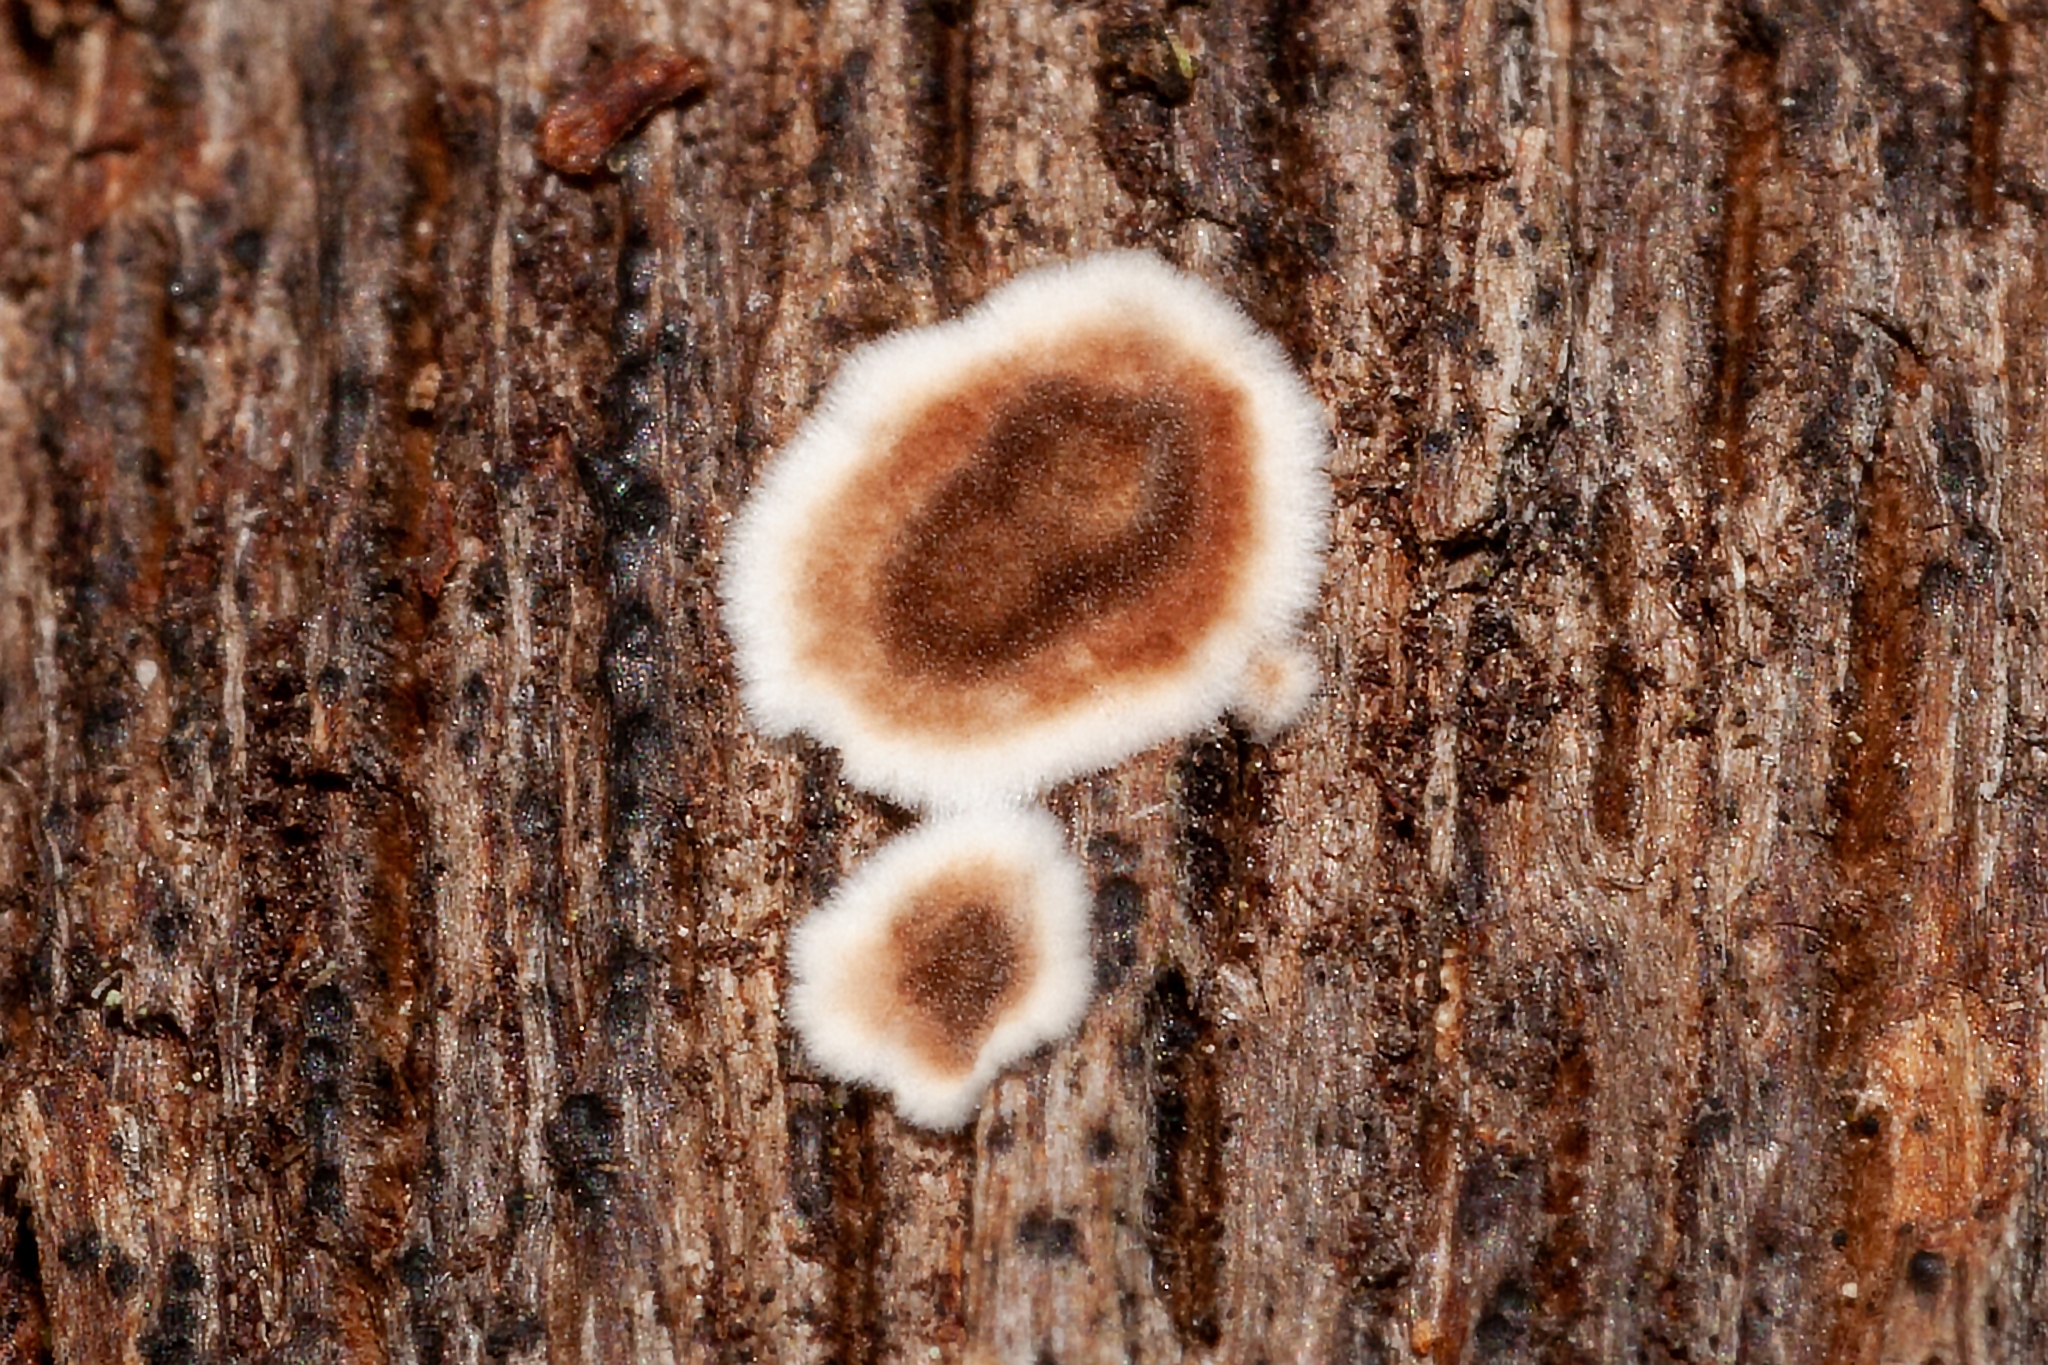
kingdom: Fungi
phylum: Basidiomycota
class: Agaricomycetes
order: Russulales
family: Peniophoraceae
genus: Peniophora
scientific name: Peniophora albobadia
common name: Giraffe spots
